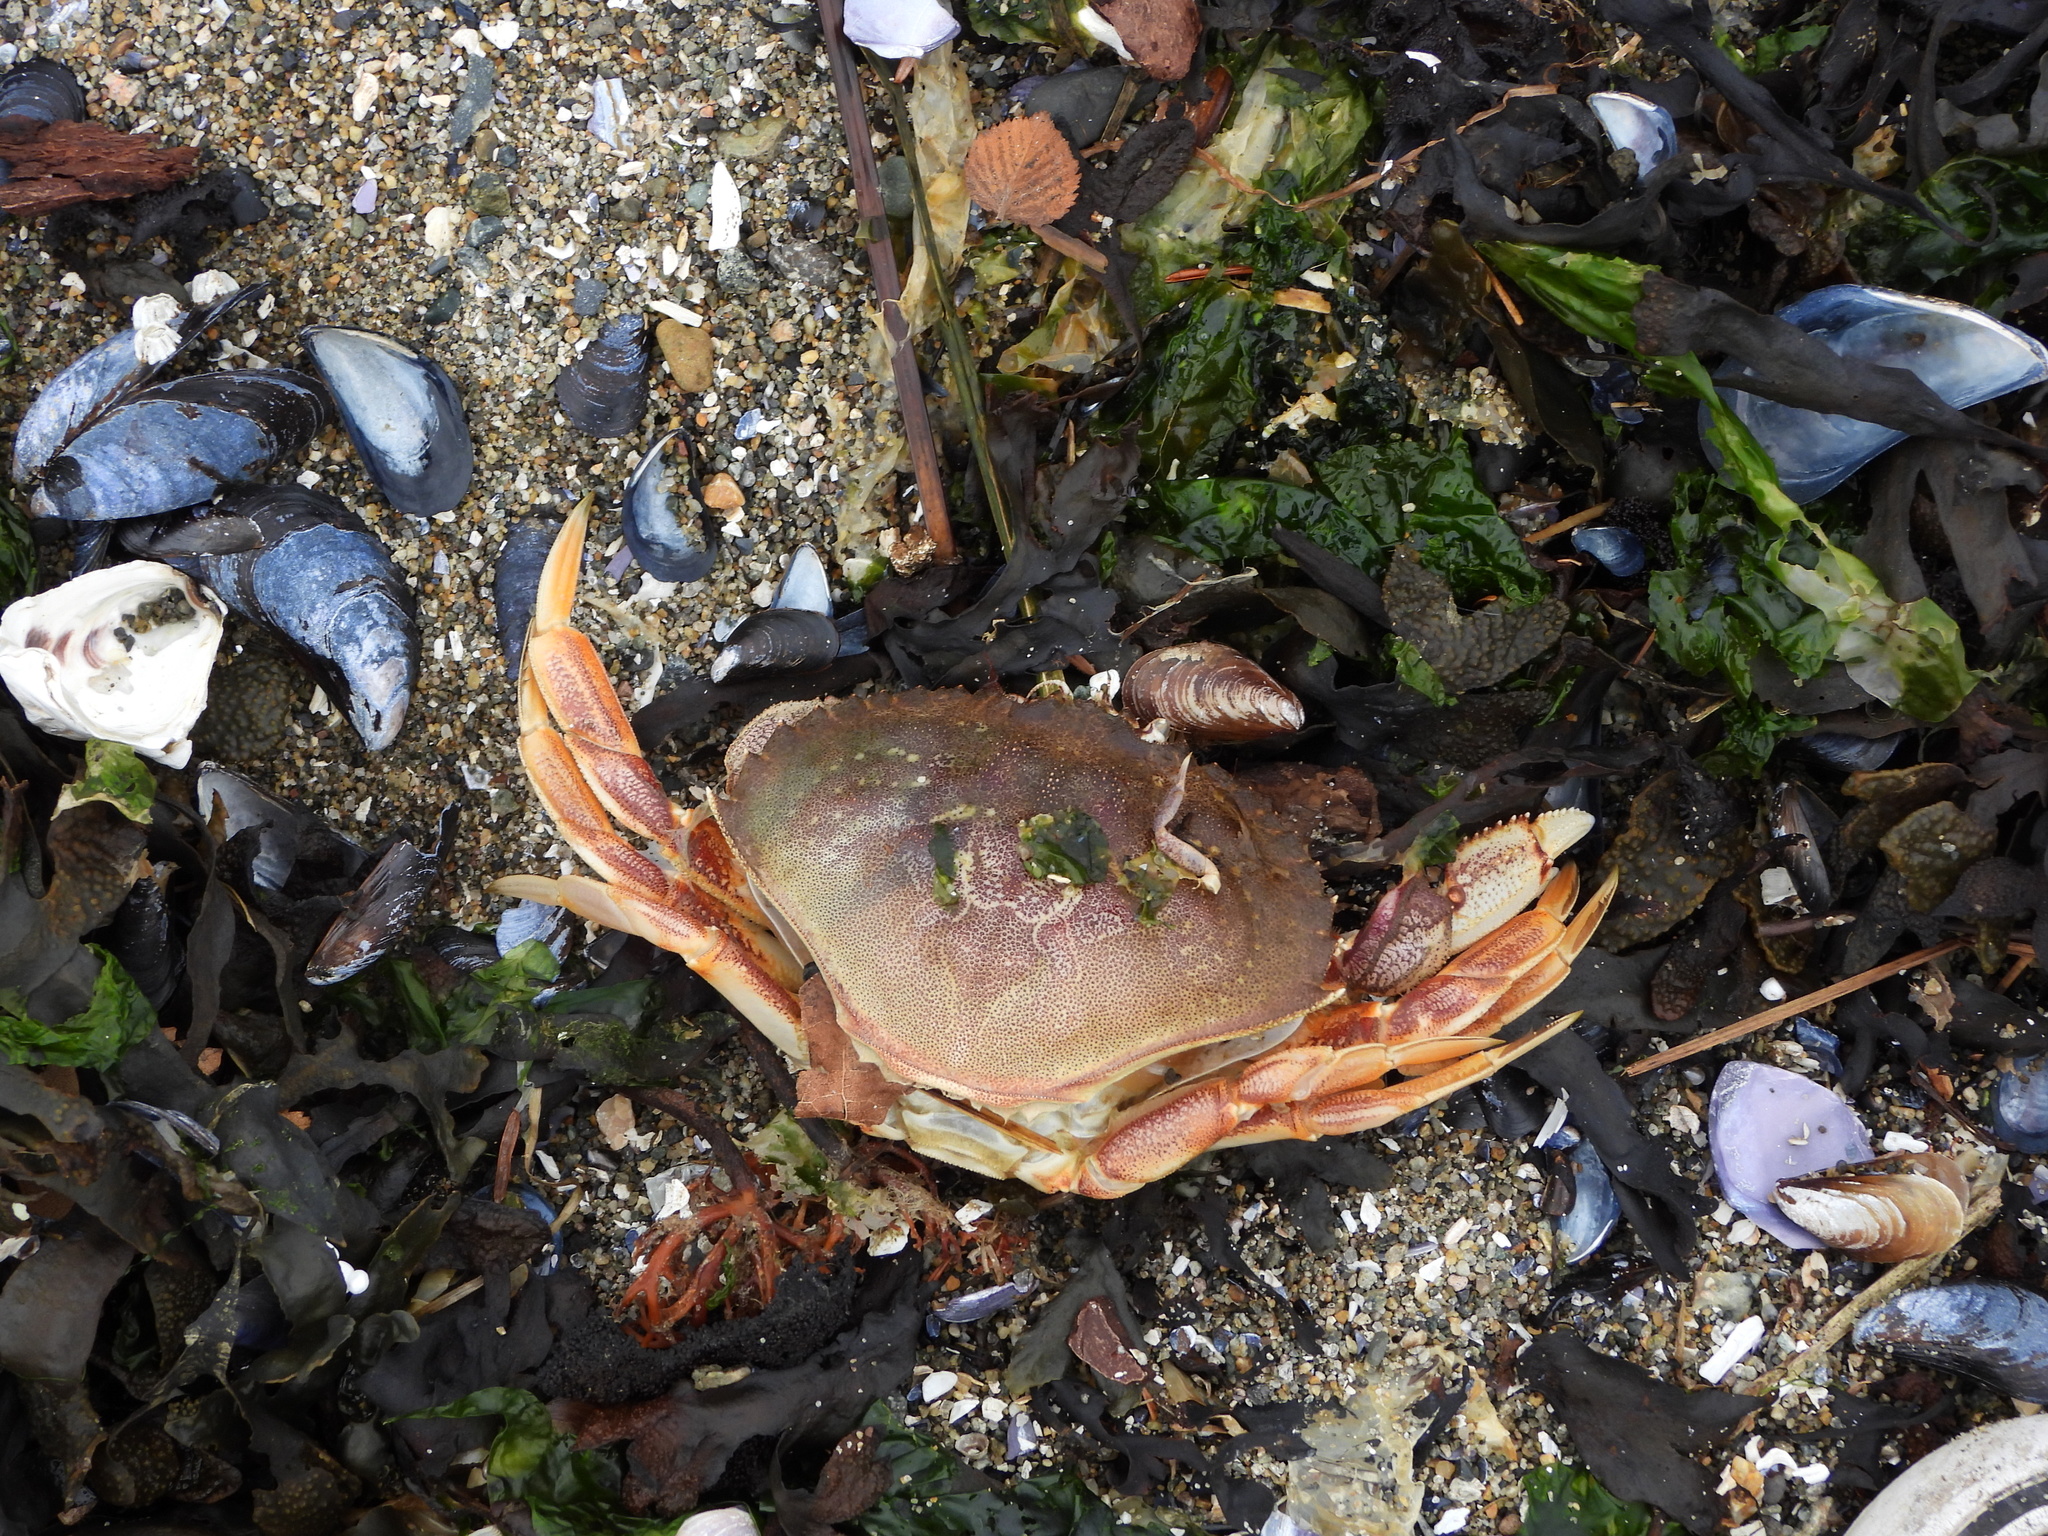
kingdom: Animalia
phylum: Arthropoda
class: Malacostraca
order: Decapoda
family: Cancridae
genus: Metacarcinus
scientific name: Metacarcinus magister
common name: Californian crab
